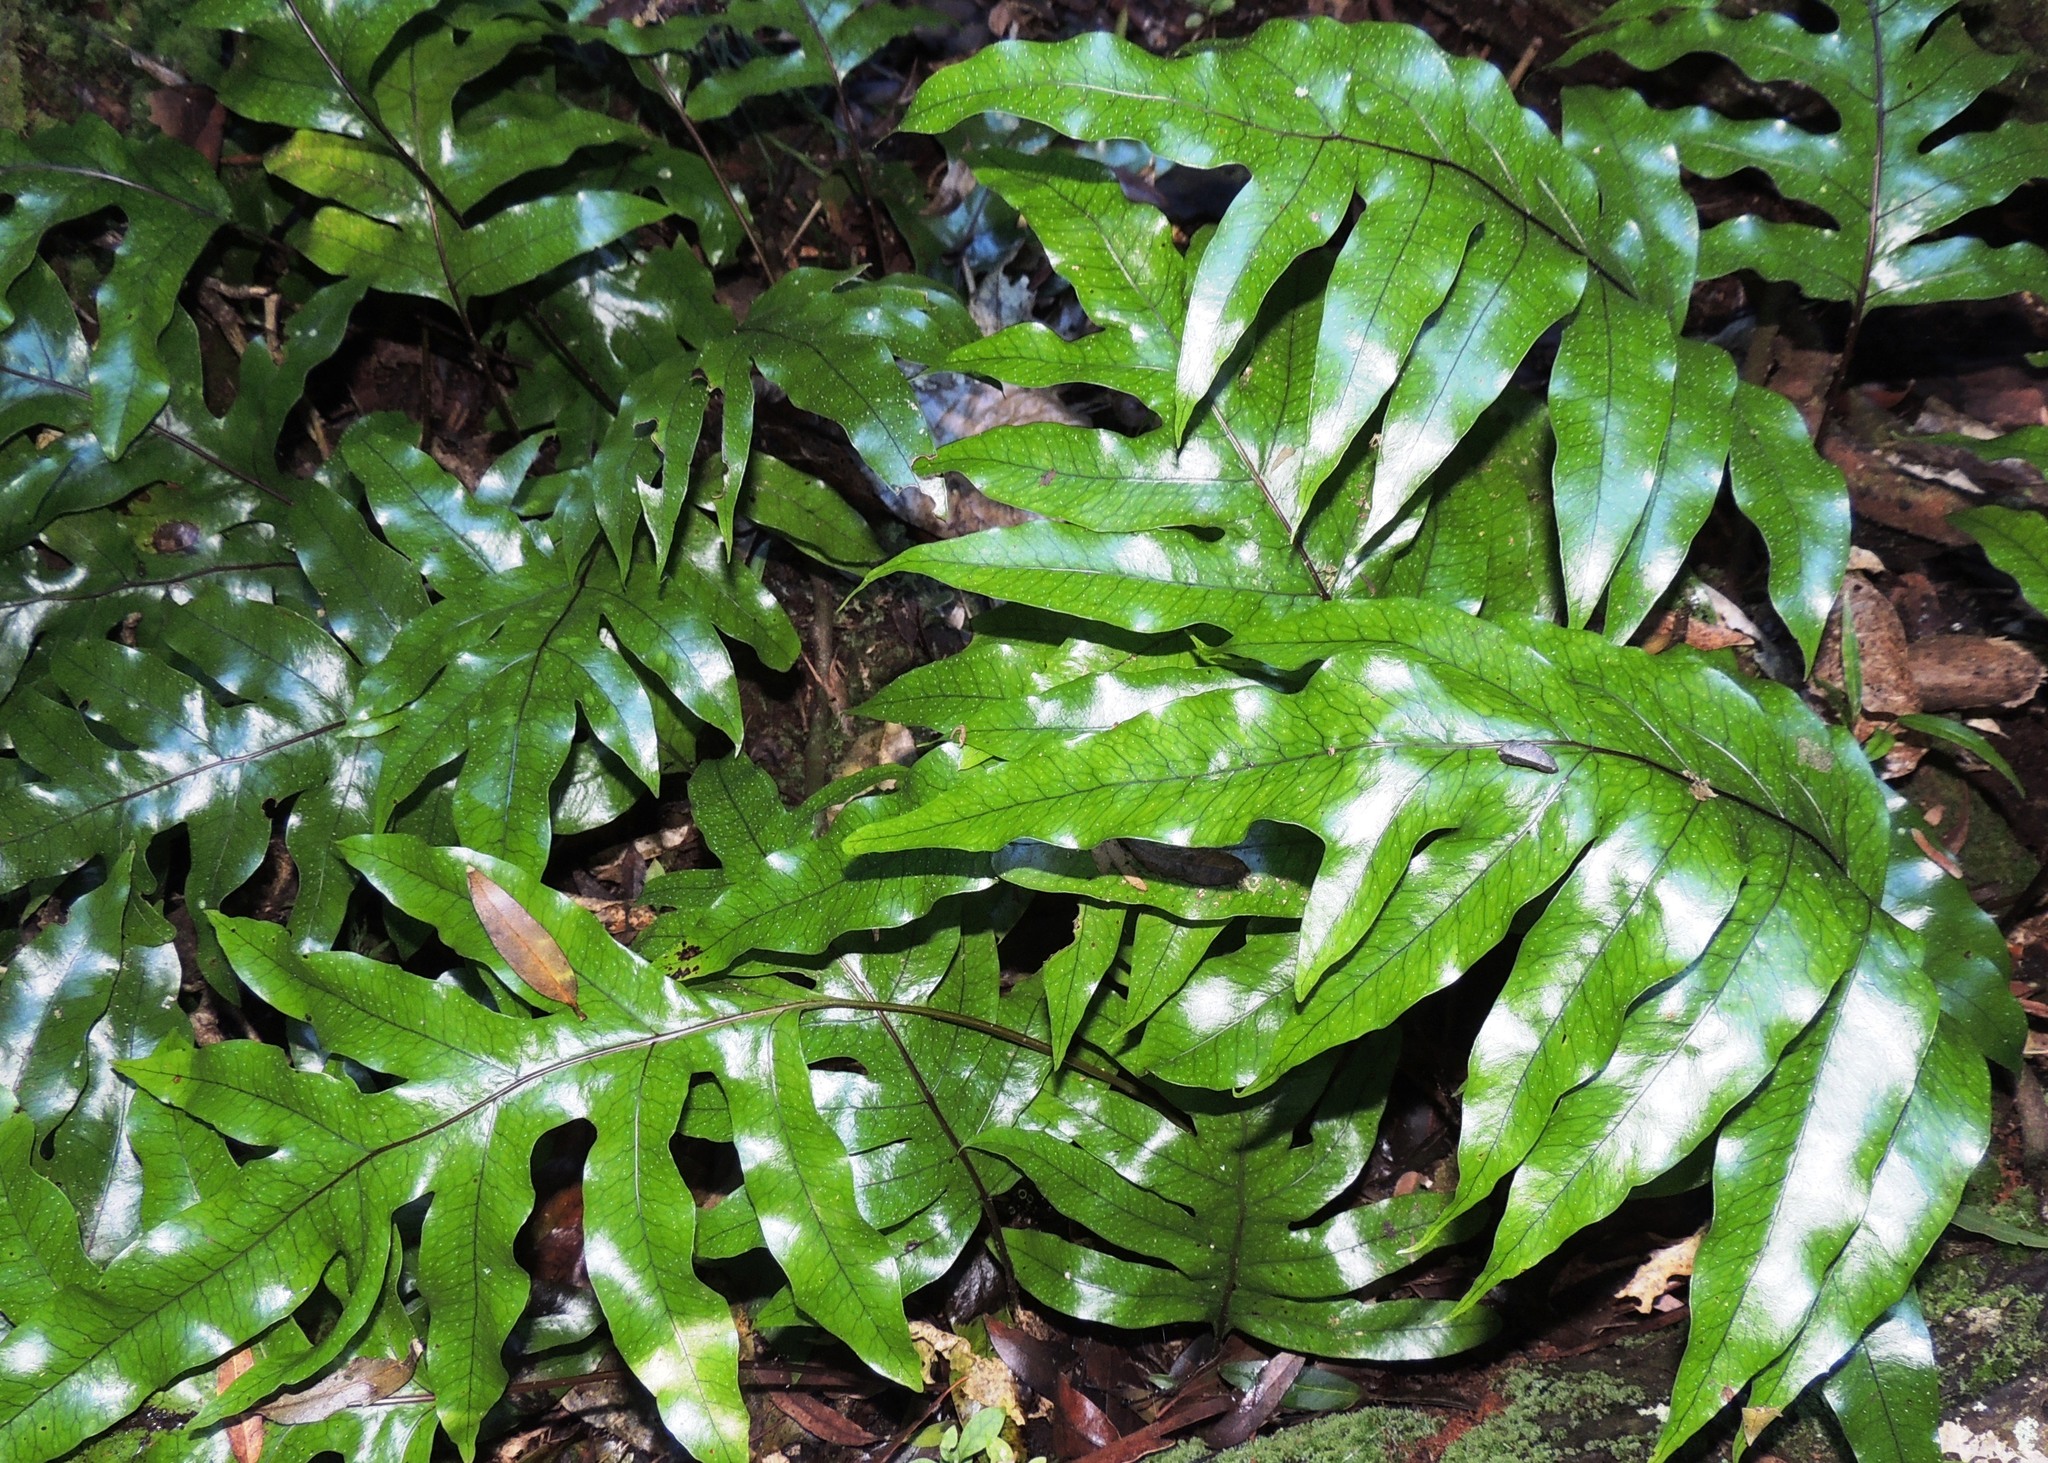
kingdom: Plantae
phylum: Tracheophyta
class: Polypodiopsida
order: Polypodiales
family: Polypodiaceae
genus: Lecanopteris
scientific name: Lecanopteris pustulata
